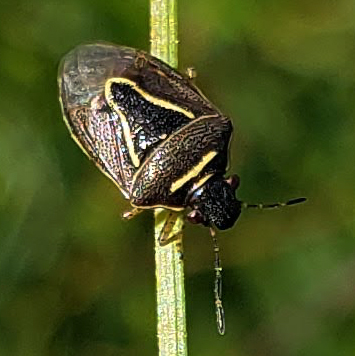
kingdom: Animalia
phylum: Arthropoda
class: Insecta
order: Hemiptera
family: Pentatomidae
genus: Mormidea
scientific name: Mormidea lugens
